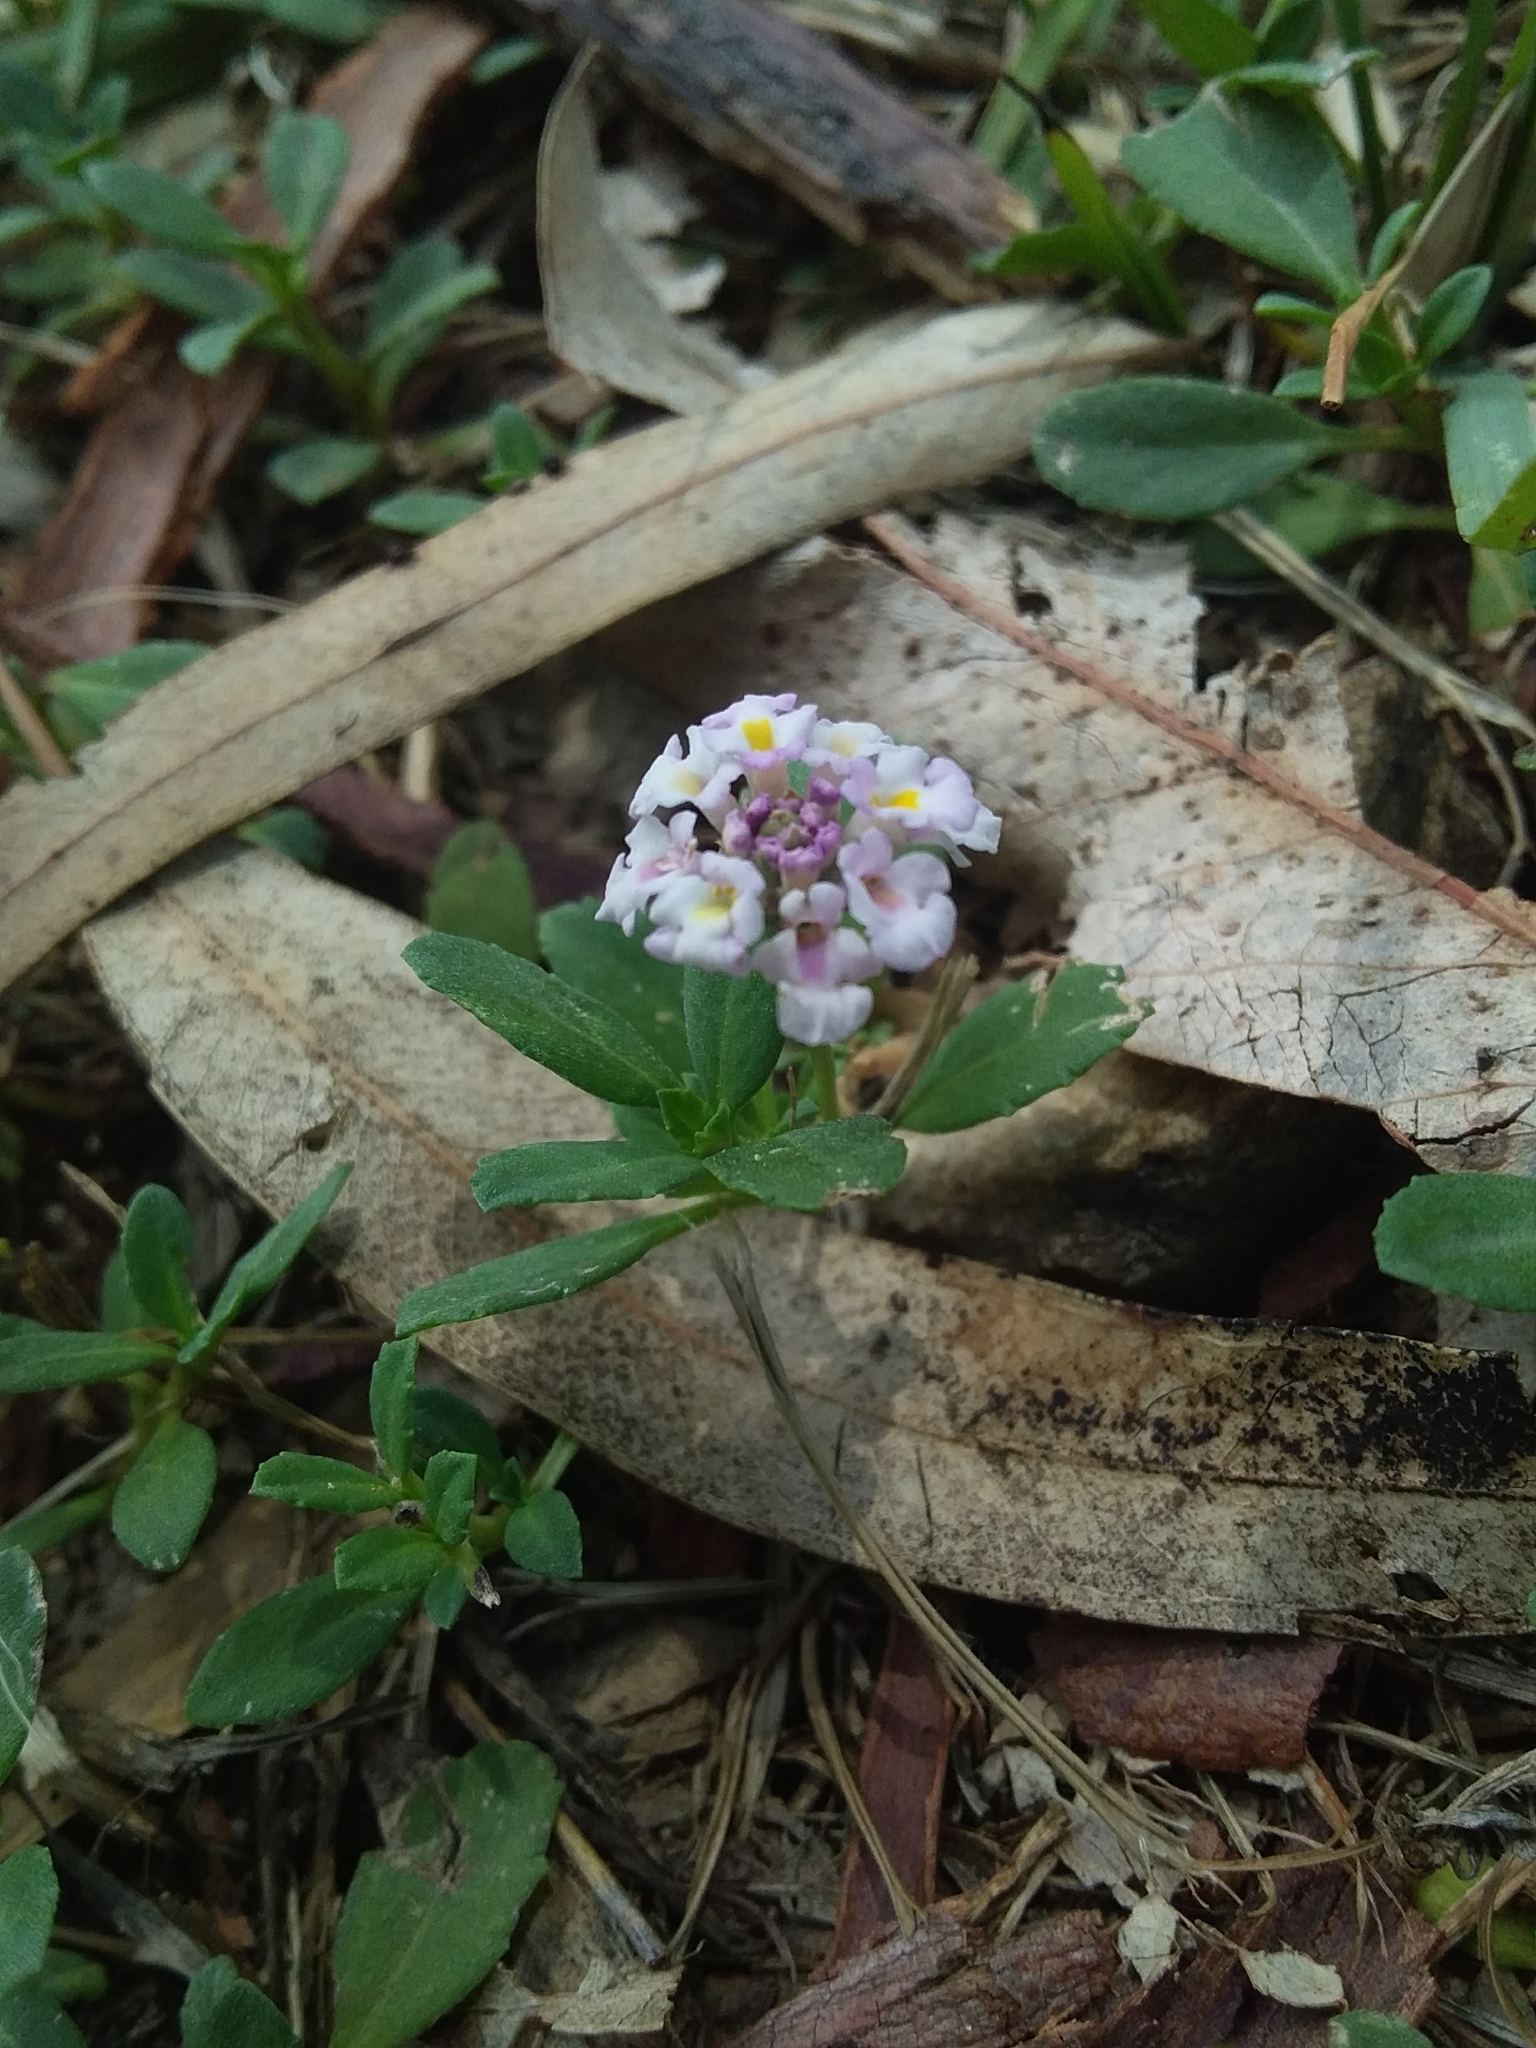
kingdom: Plantae
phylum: Tracheophyta
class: Magnoliopsida
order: Lamiales
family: Verbenaceae
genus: Phyla
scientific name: Phyla nodiflora
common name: Frogfruit
